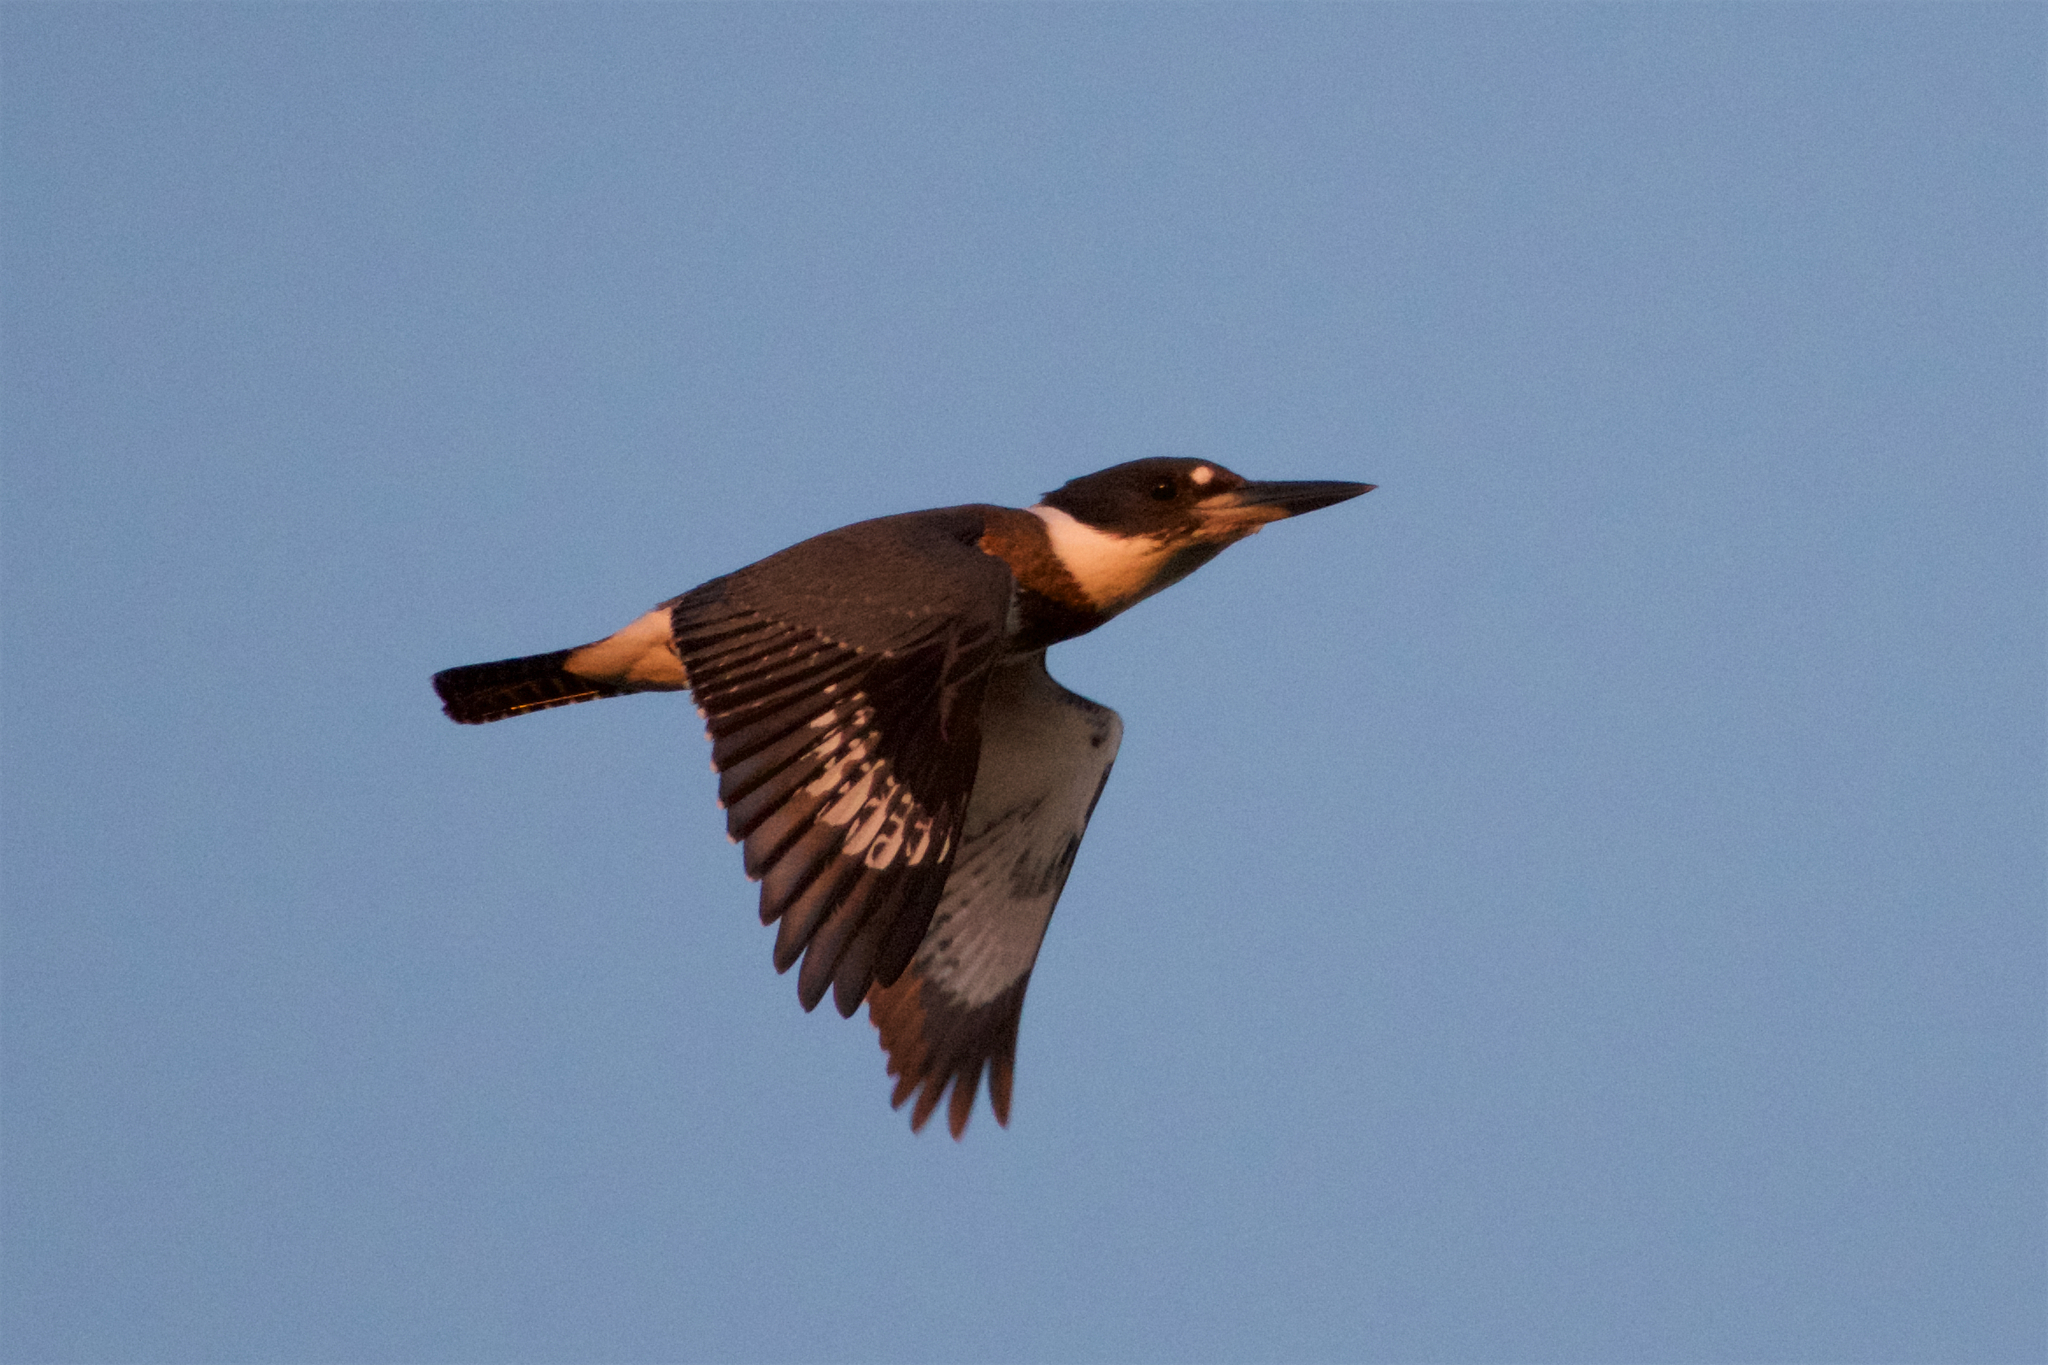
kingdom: Animalia
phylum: Chordata
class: Aves
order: Coraciiformes
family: Alcedinidae
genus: Megaceryle
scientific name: Megaceryle alcyon
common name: Belted kingfisher
